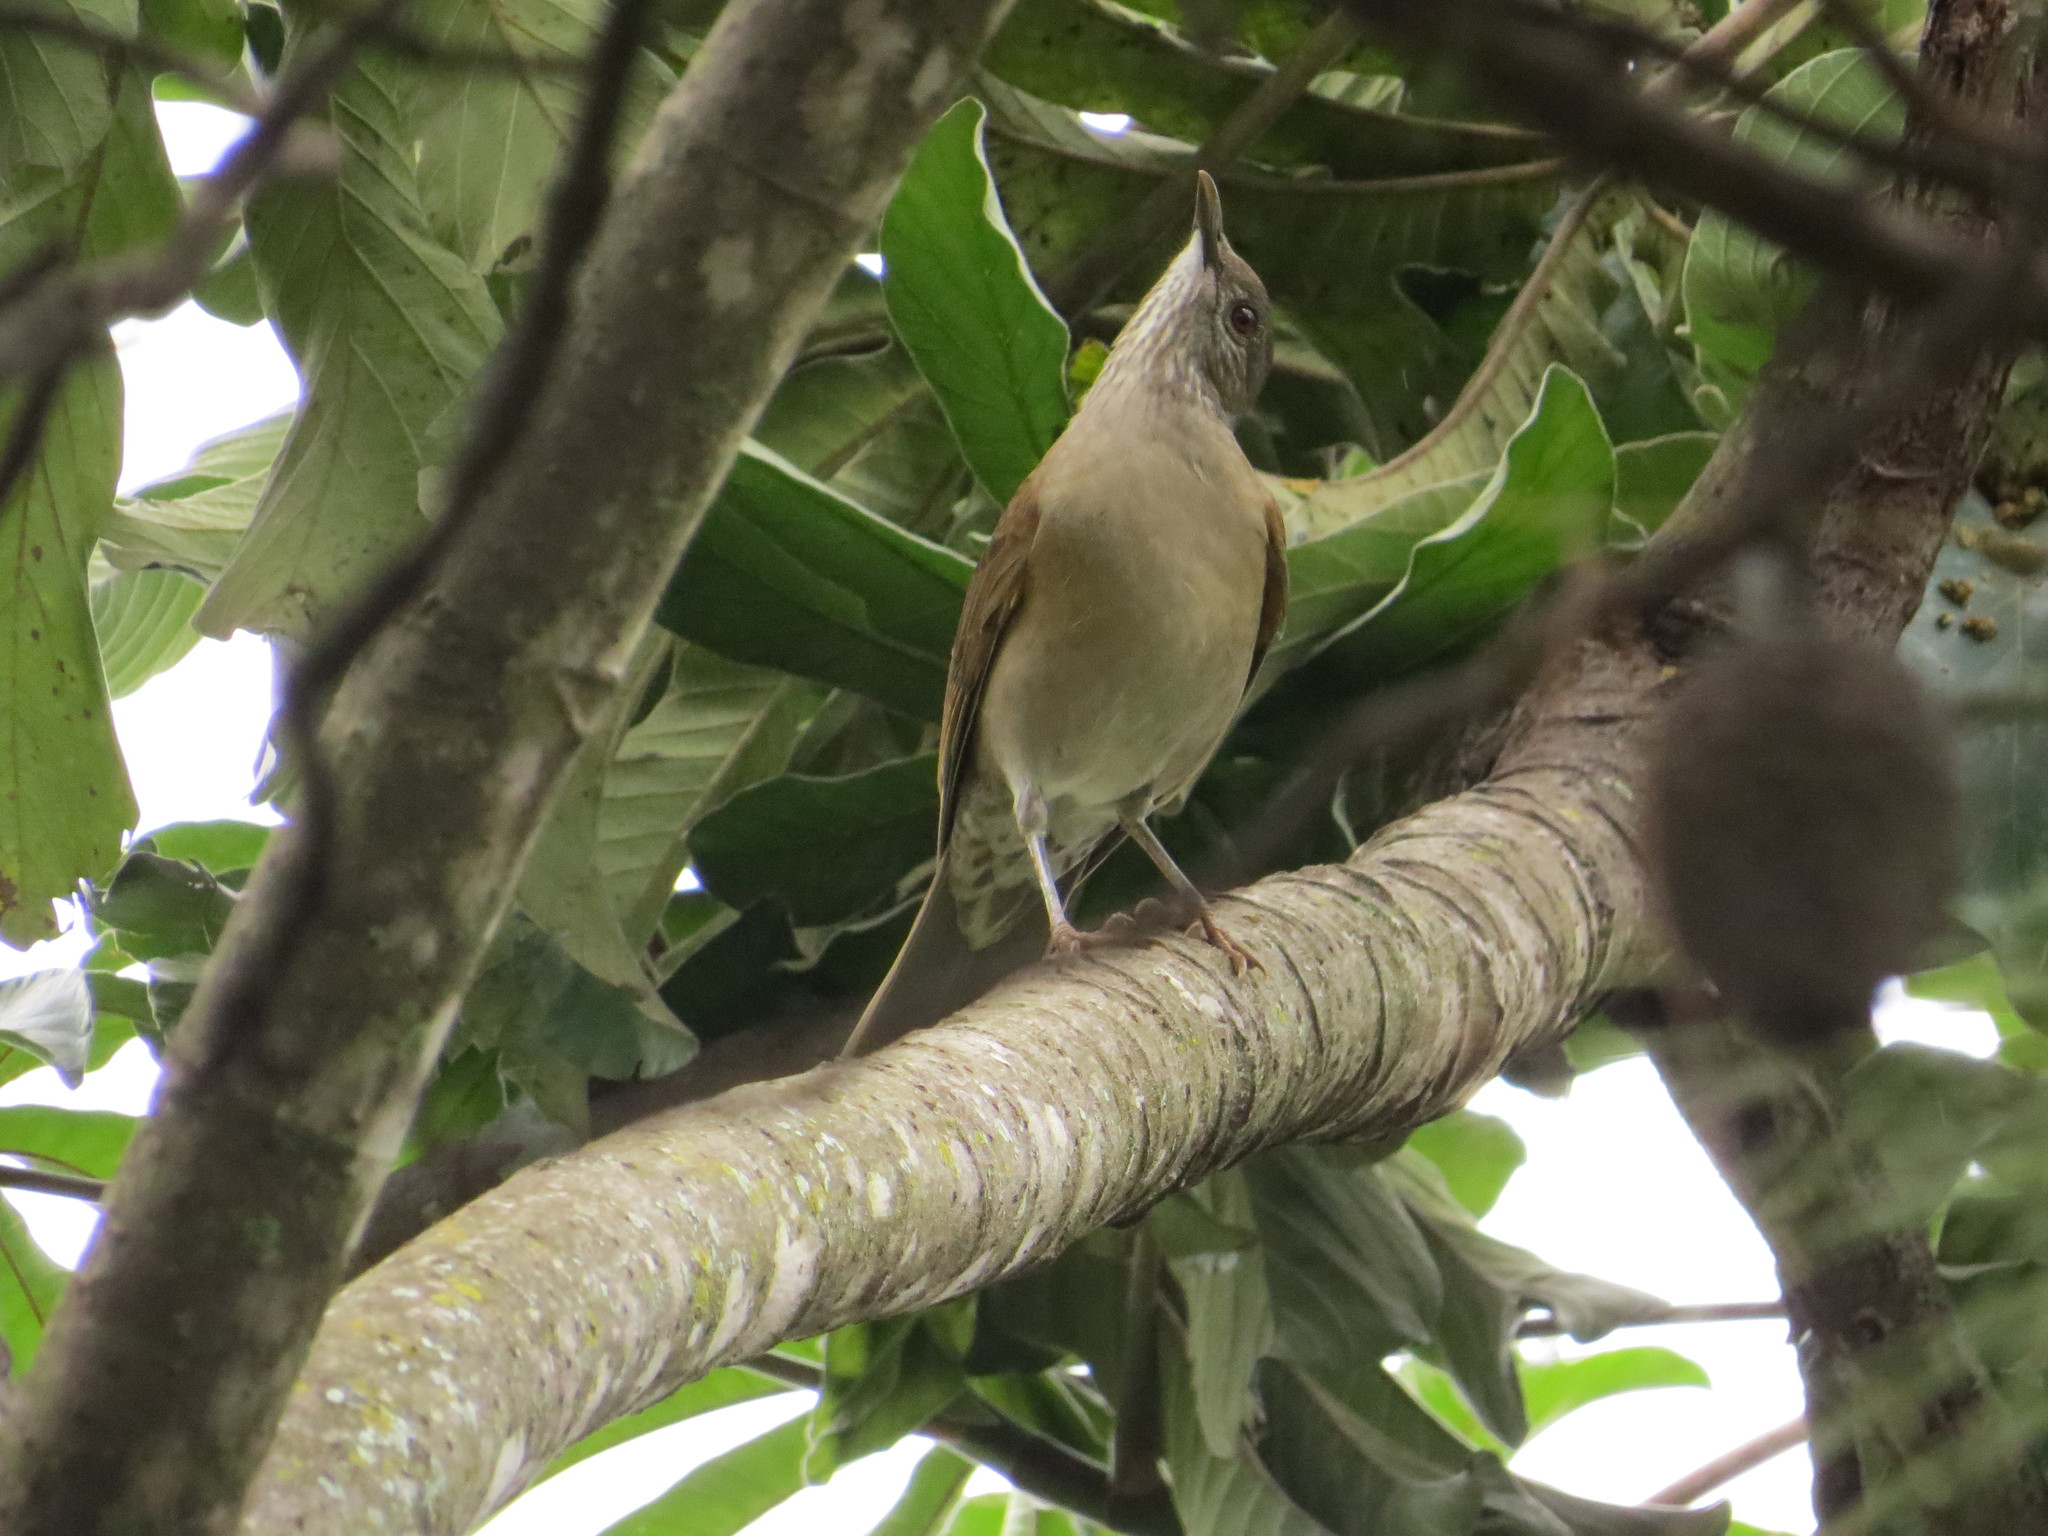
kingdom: Animalia
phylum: Chordata
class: Aves
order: Passeriformes
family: Turdidae
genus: Turdus
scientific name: Turdus leucomelas
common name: Pale-breasted thrush
